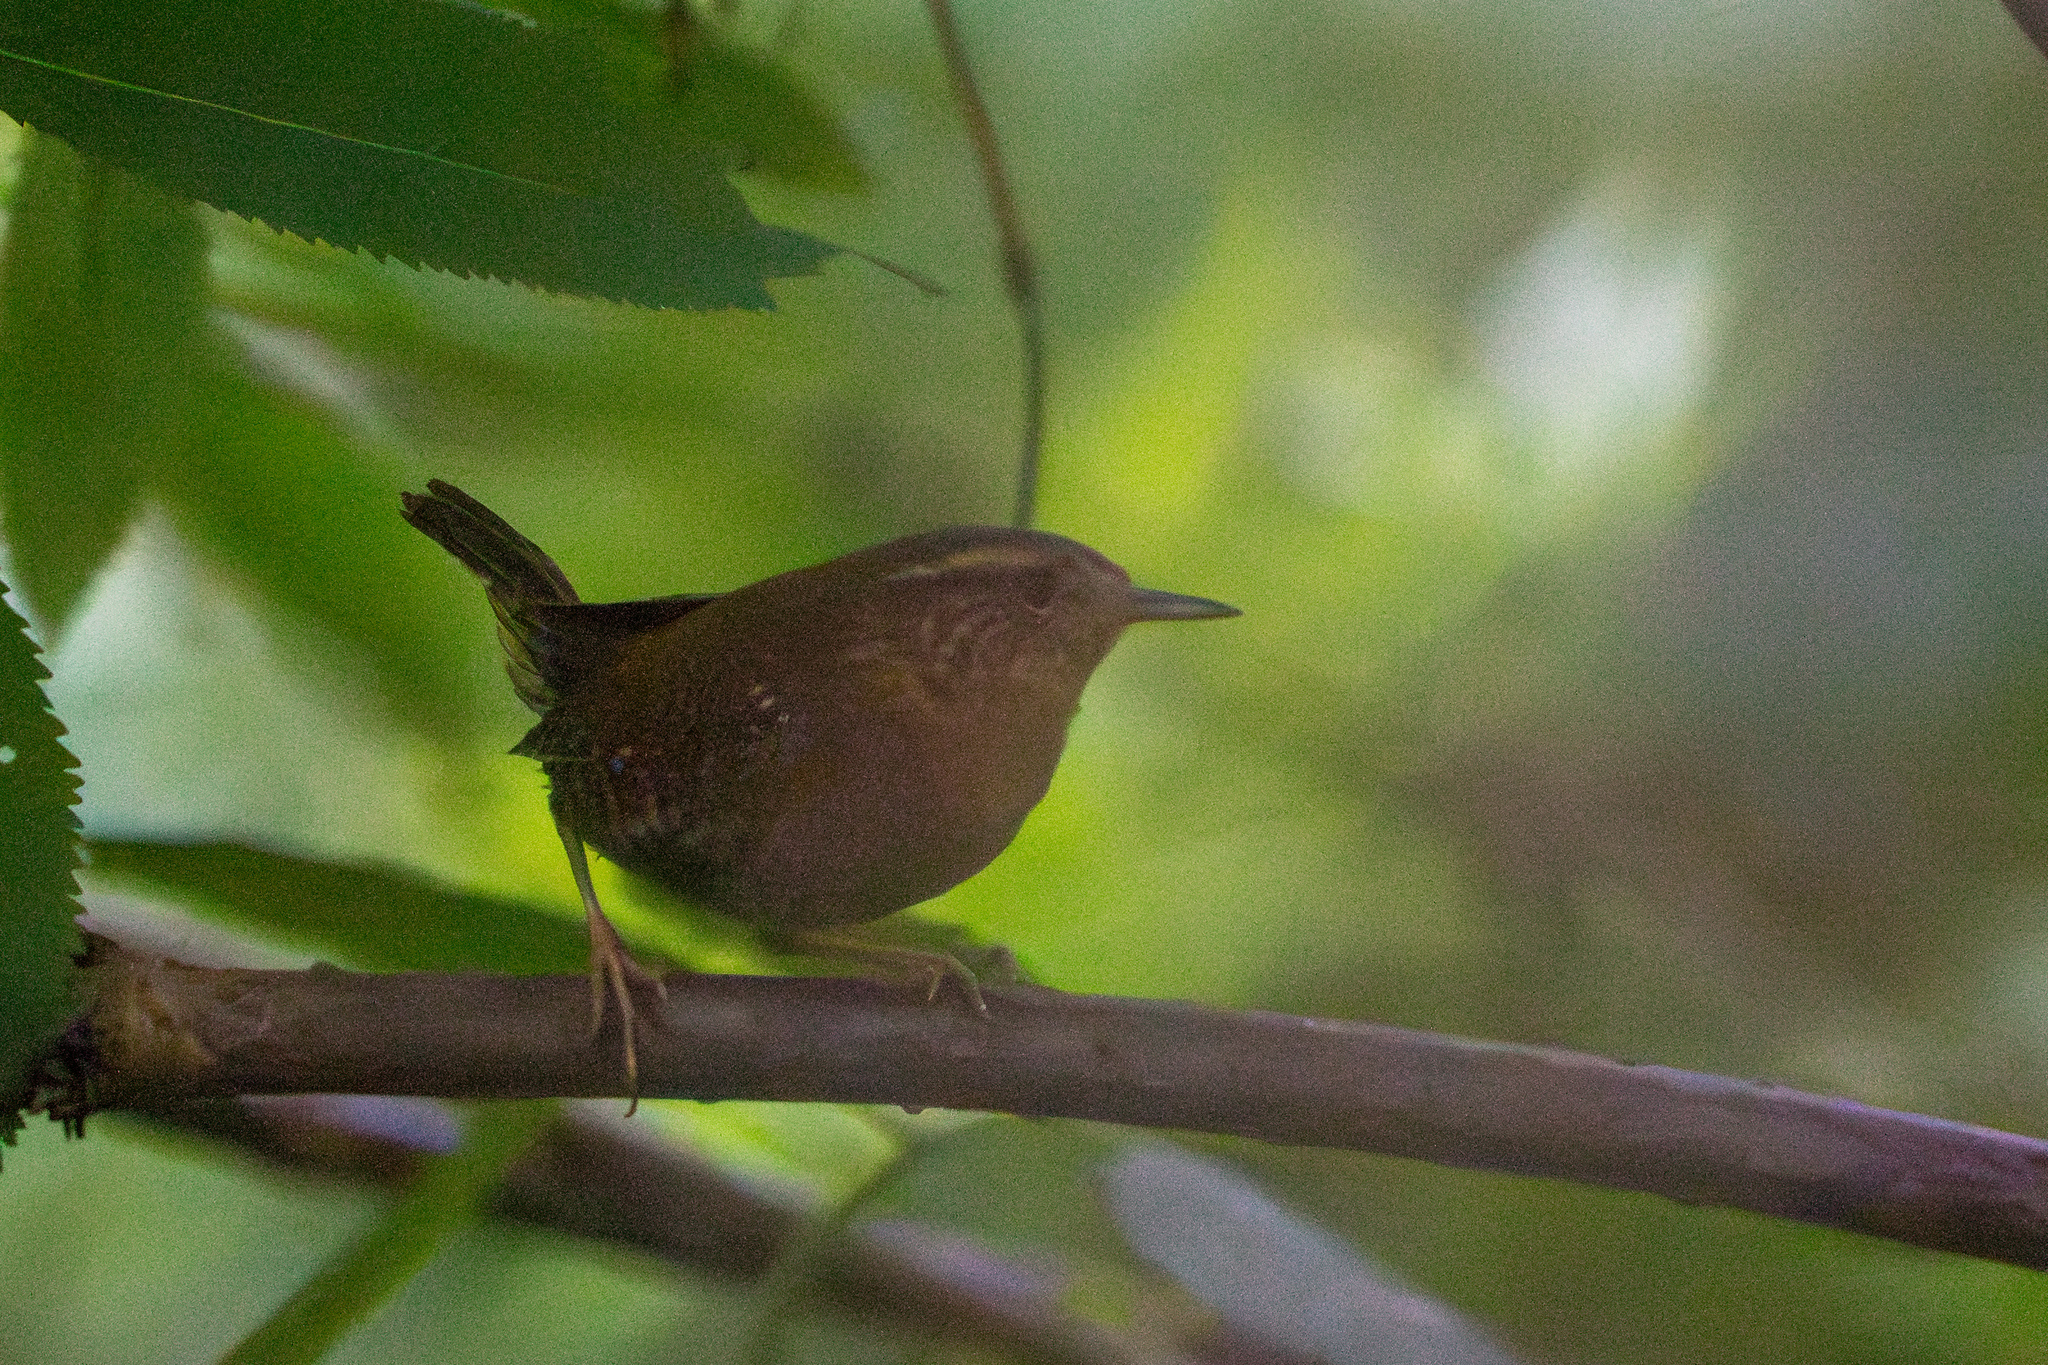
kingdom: Animalia
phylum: Chordata
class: Aves
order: Passeriformes
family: Troglodytidae
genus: Troglodytes
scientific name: Troglodytes pacificus
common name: Pacific wren
